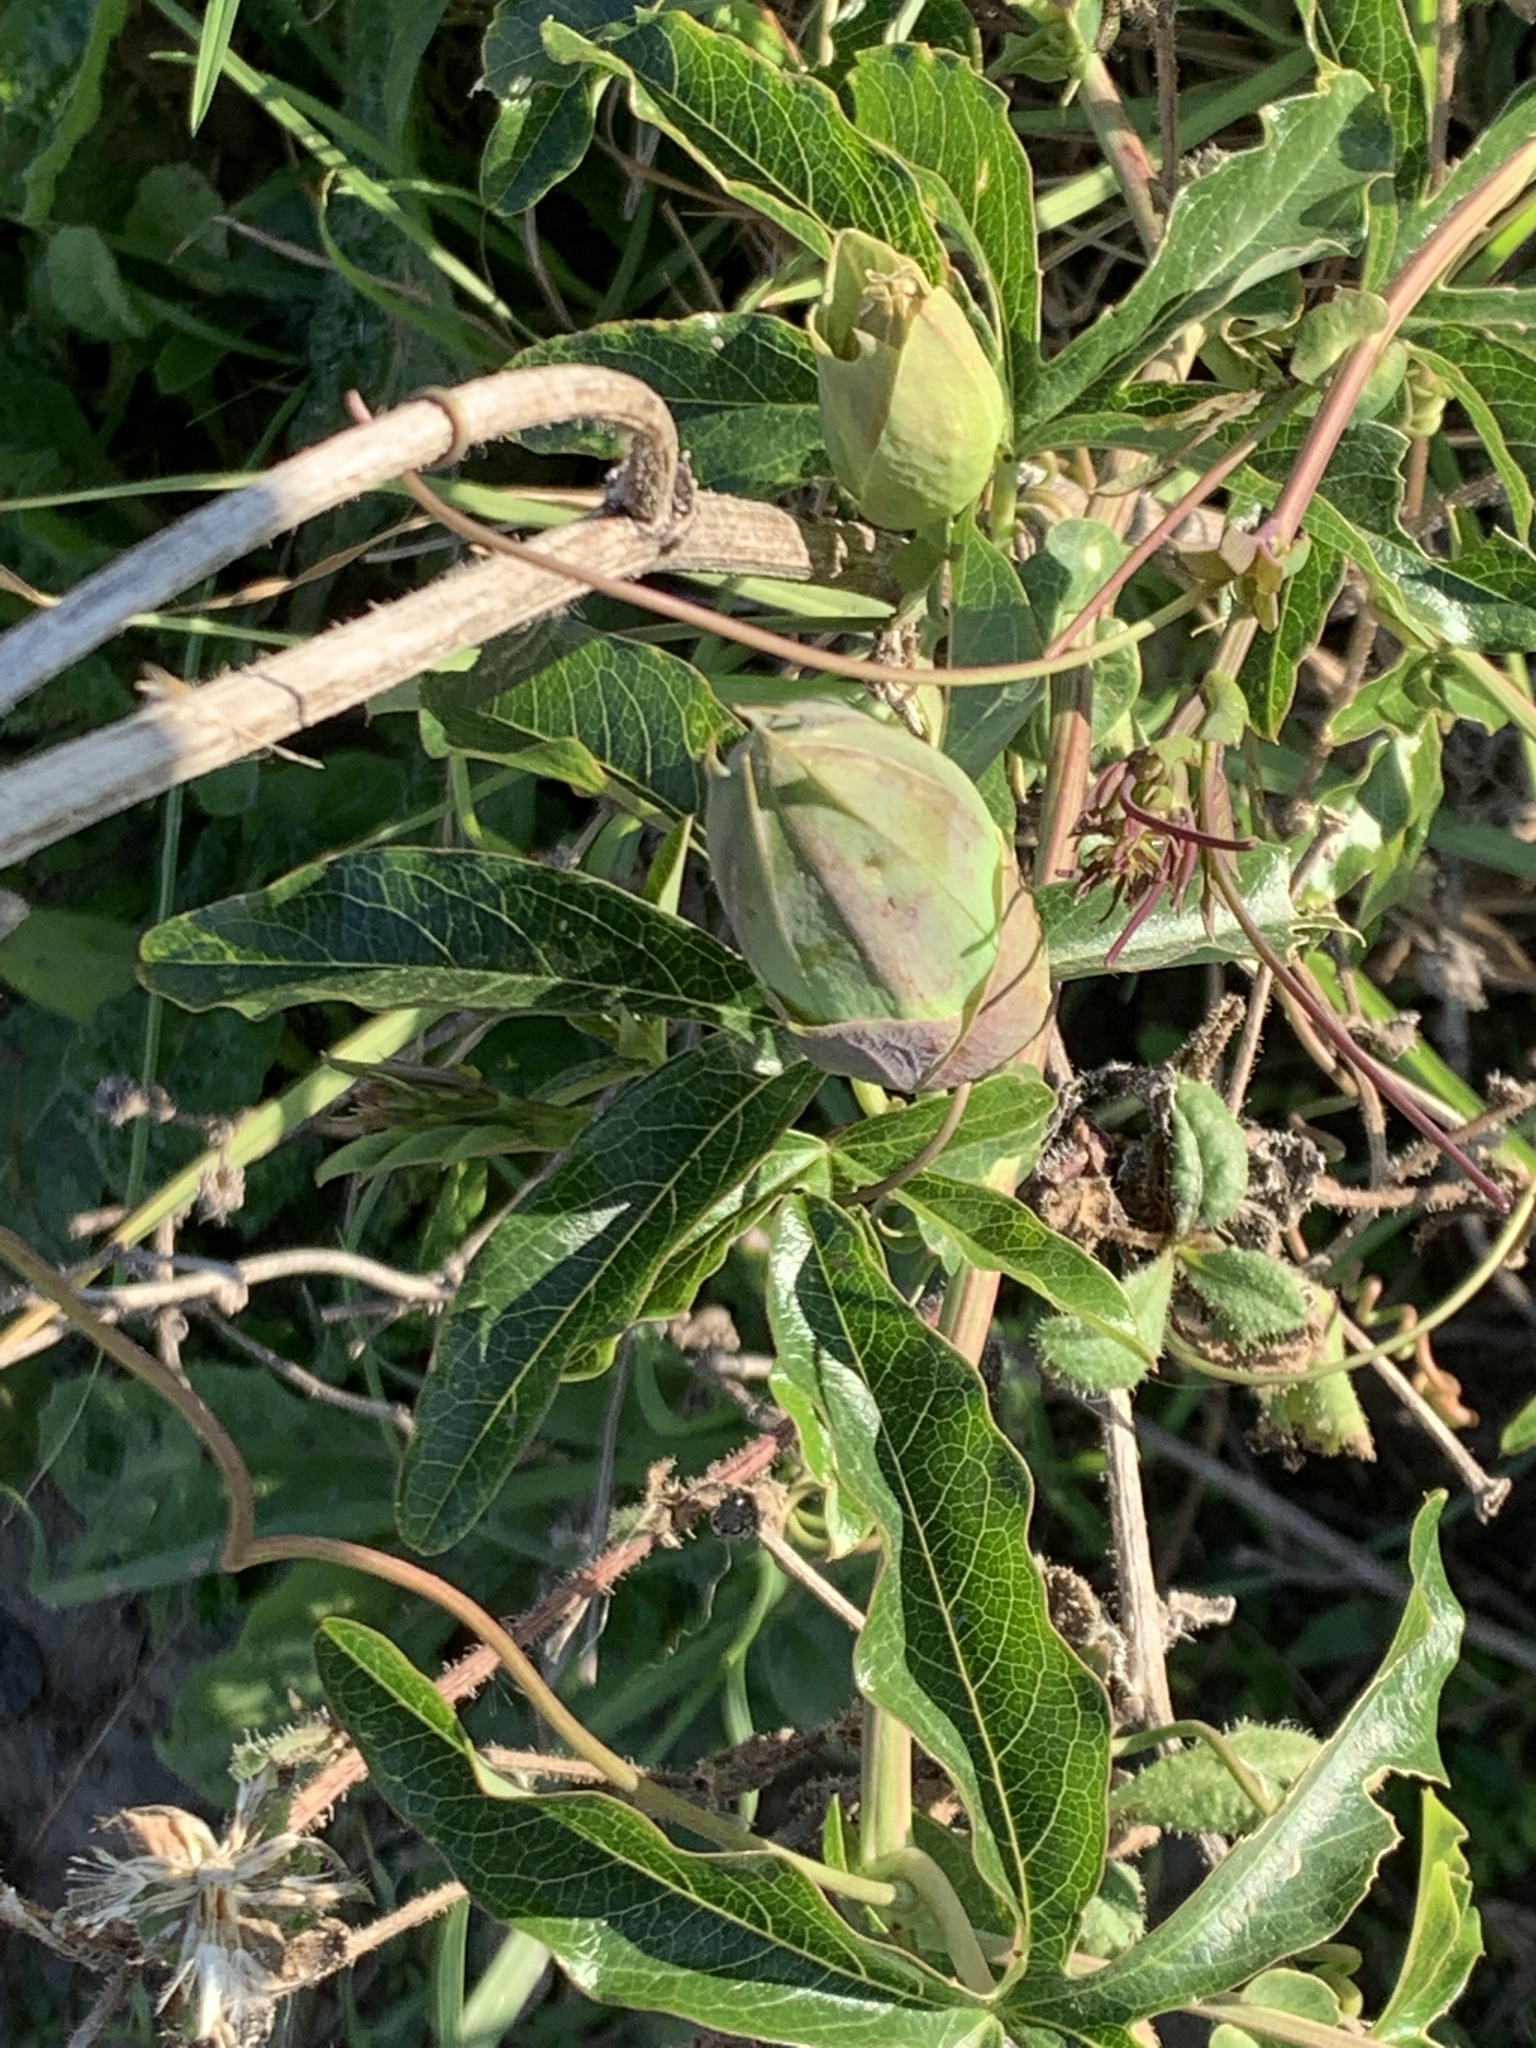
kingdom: Plantae
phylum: Tracheophyta
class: Magnoliopsida
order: Malpighiales
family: Passifloraceae
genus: Passiflora
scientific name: Passiflora caerulea
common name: Blue passionflower
